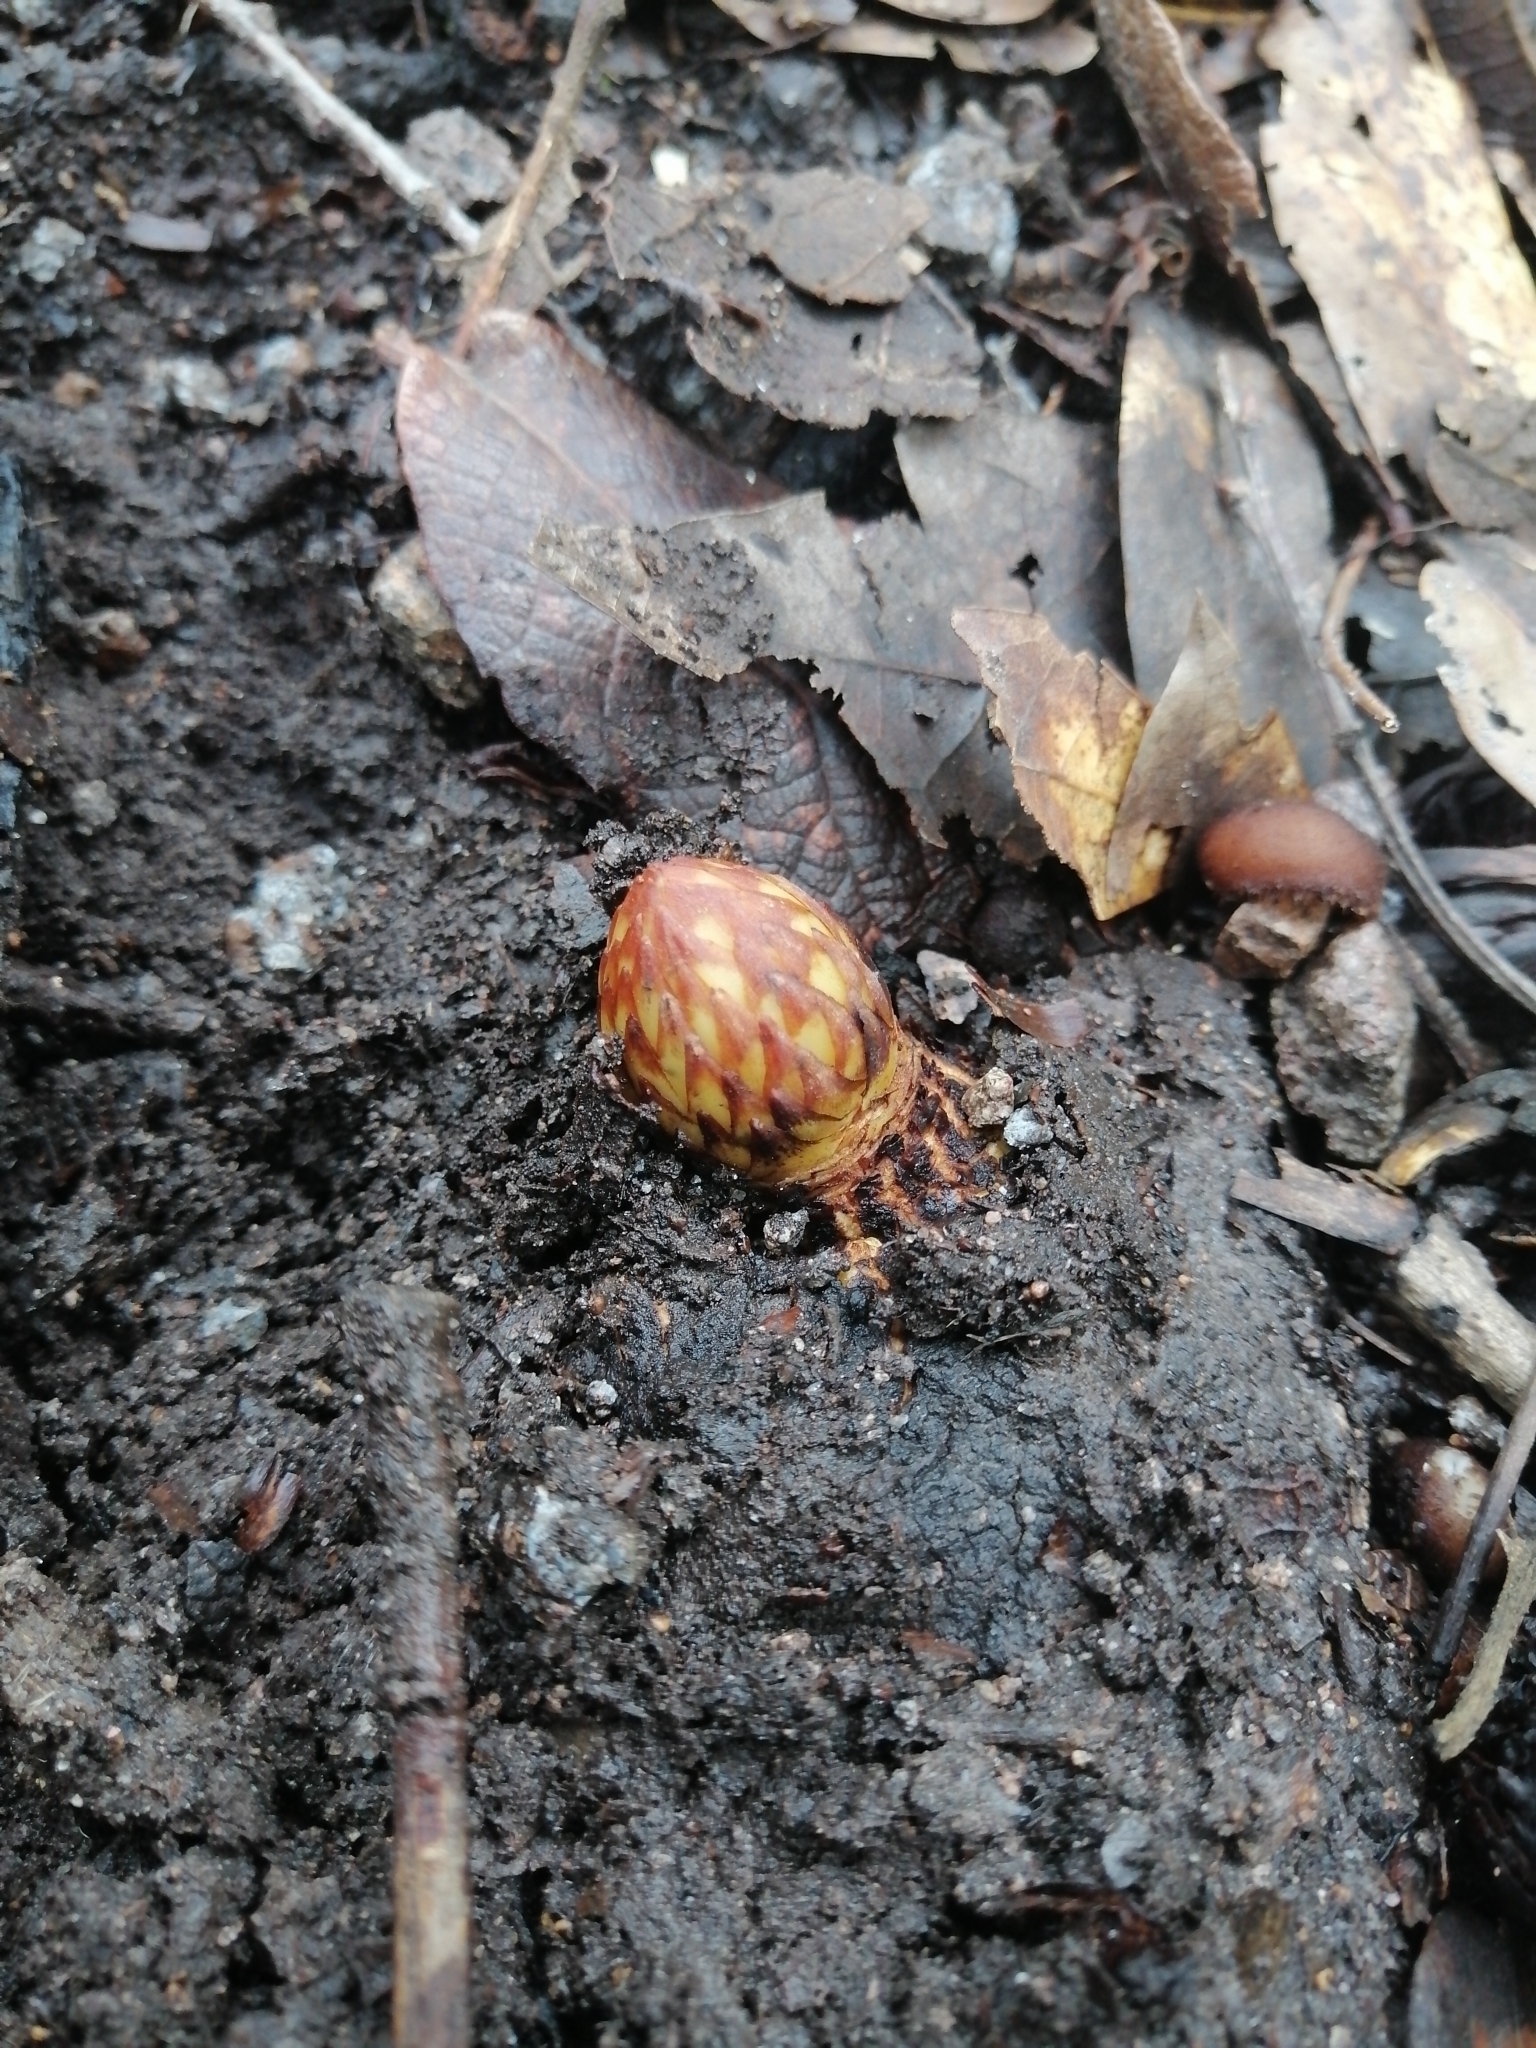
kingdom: Plantae
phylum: Tracheophyta
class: Magnoliopsida
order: Lamiales
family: Orobanchaceae
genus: Conopholis
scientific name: Conopholis alpina
